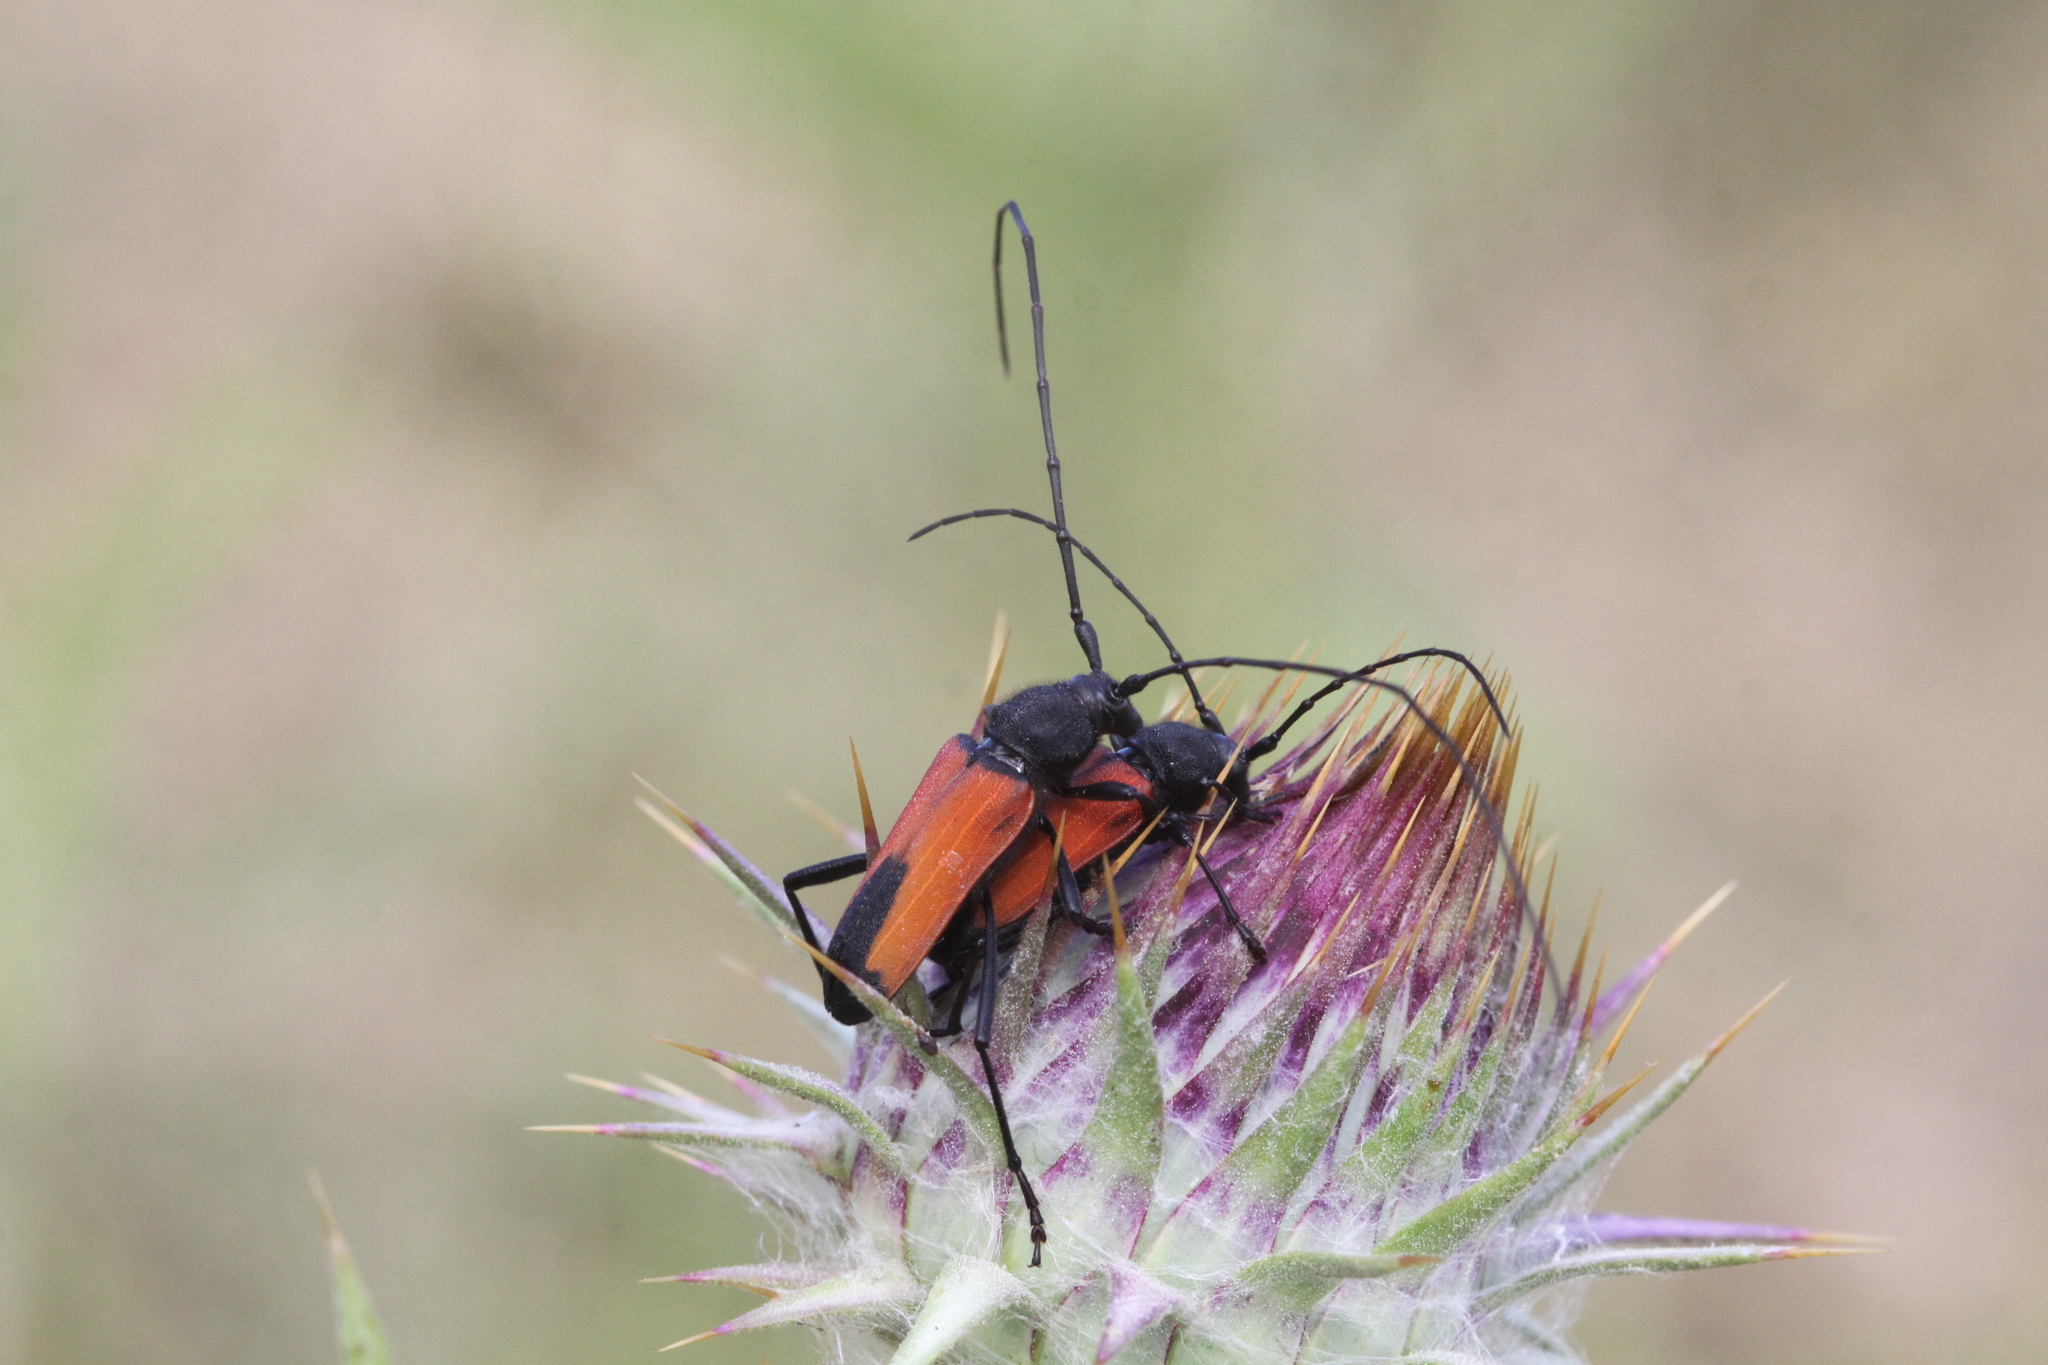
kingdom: Animalia
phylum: Arthropoda
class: Insecta
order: Coleoptera
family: Cerambycidae
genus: Purpuricenus
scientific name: Purpuricenus budensis
